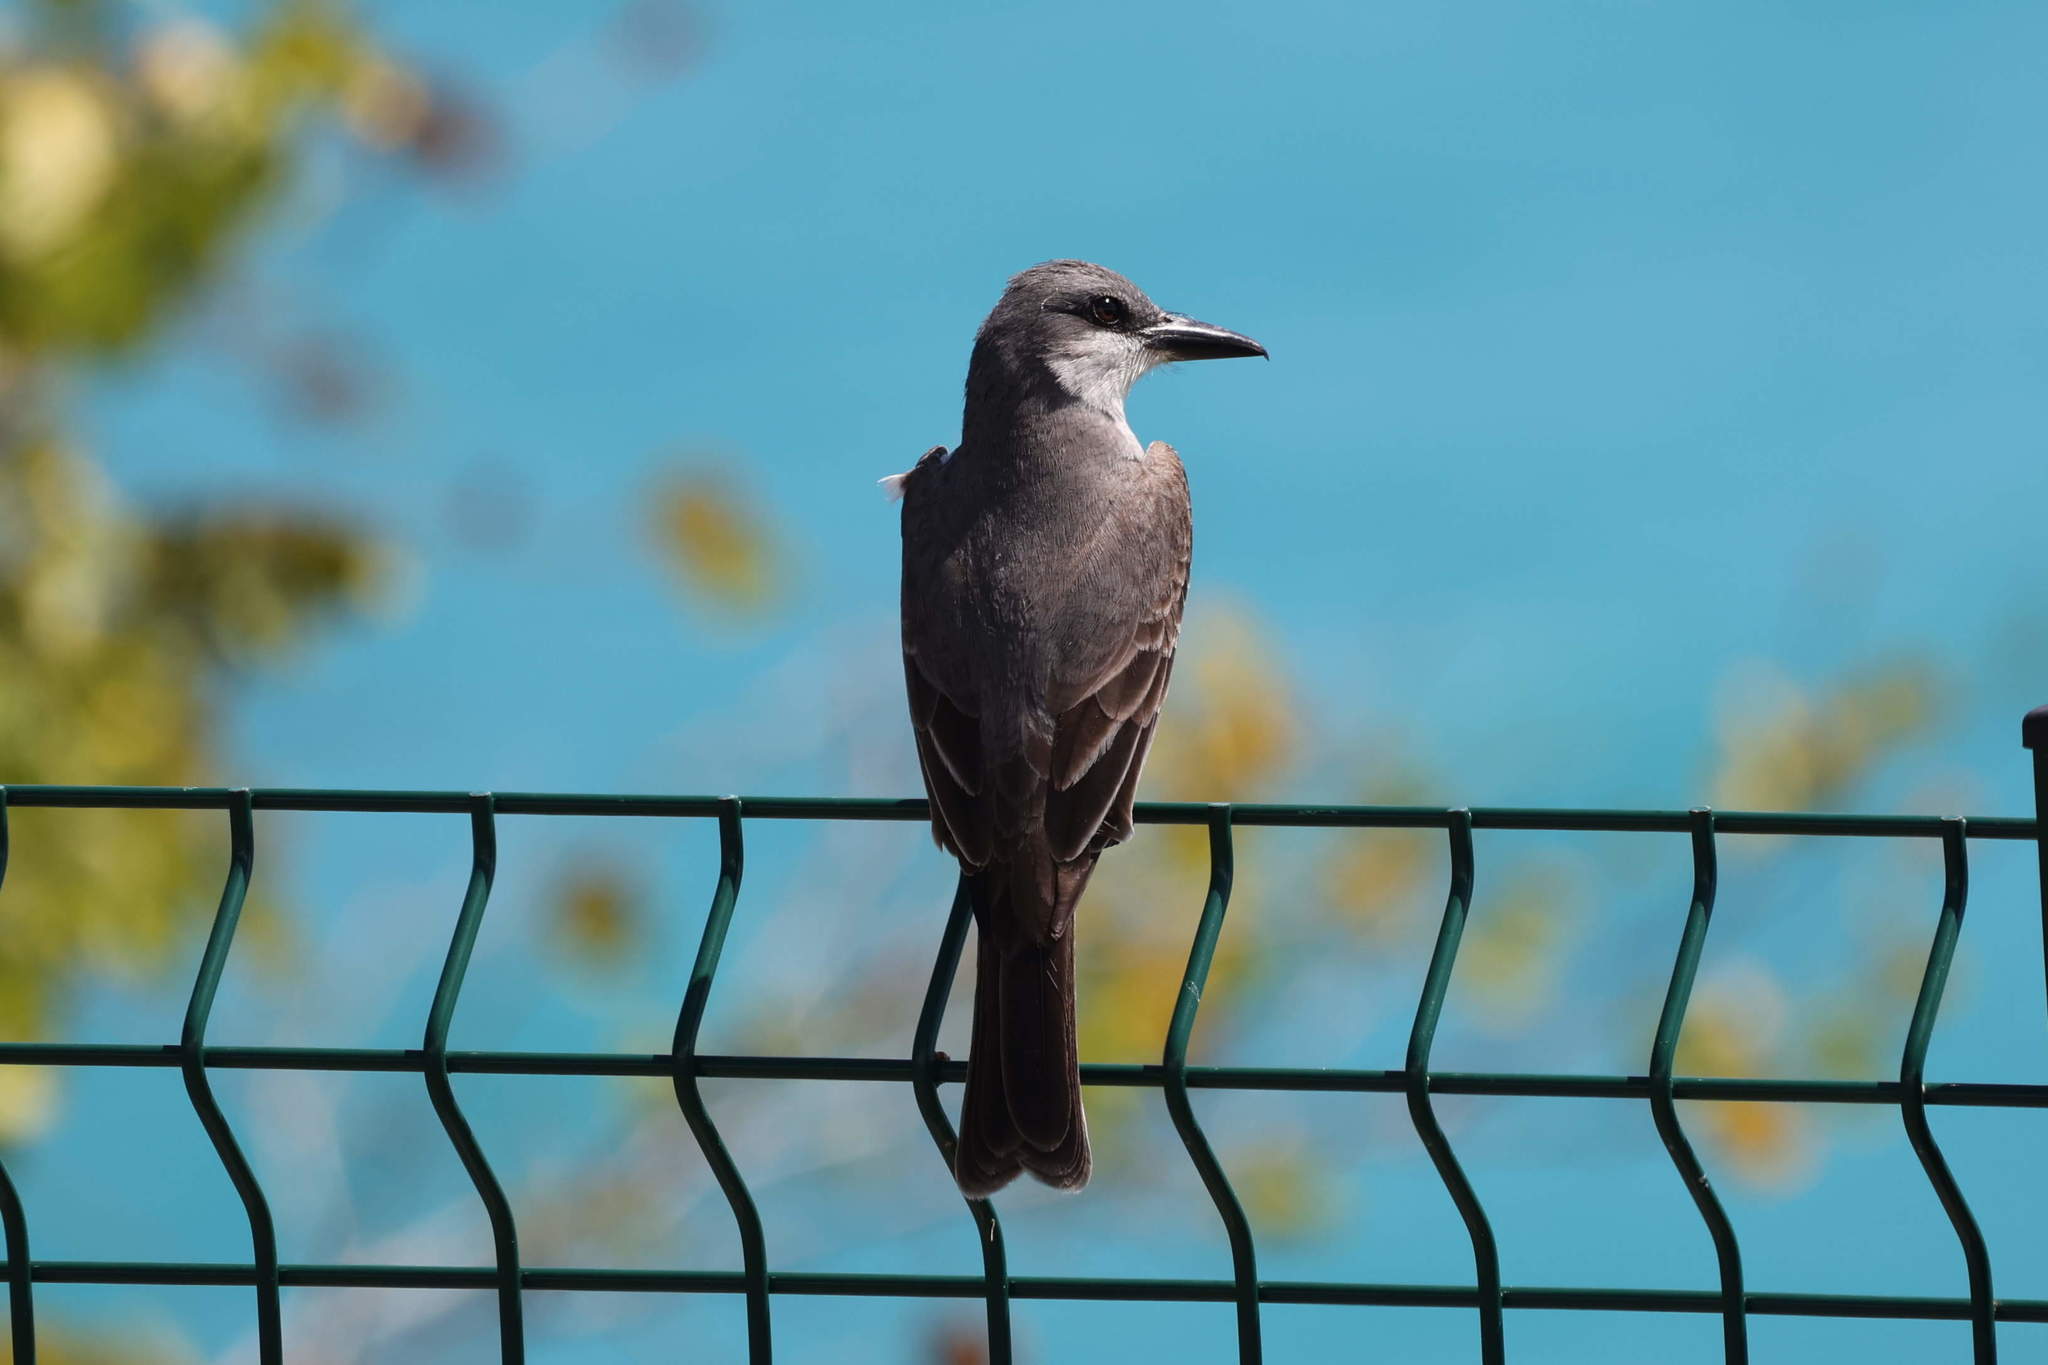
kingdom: Animalia
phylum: Chordata
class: Aves
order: Passeriformes
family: Tyrannidae
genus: Tyrannus
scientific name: Tyrannus dominicensis
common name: Gray kingbird
